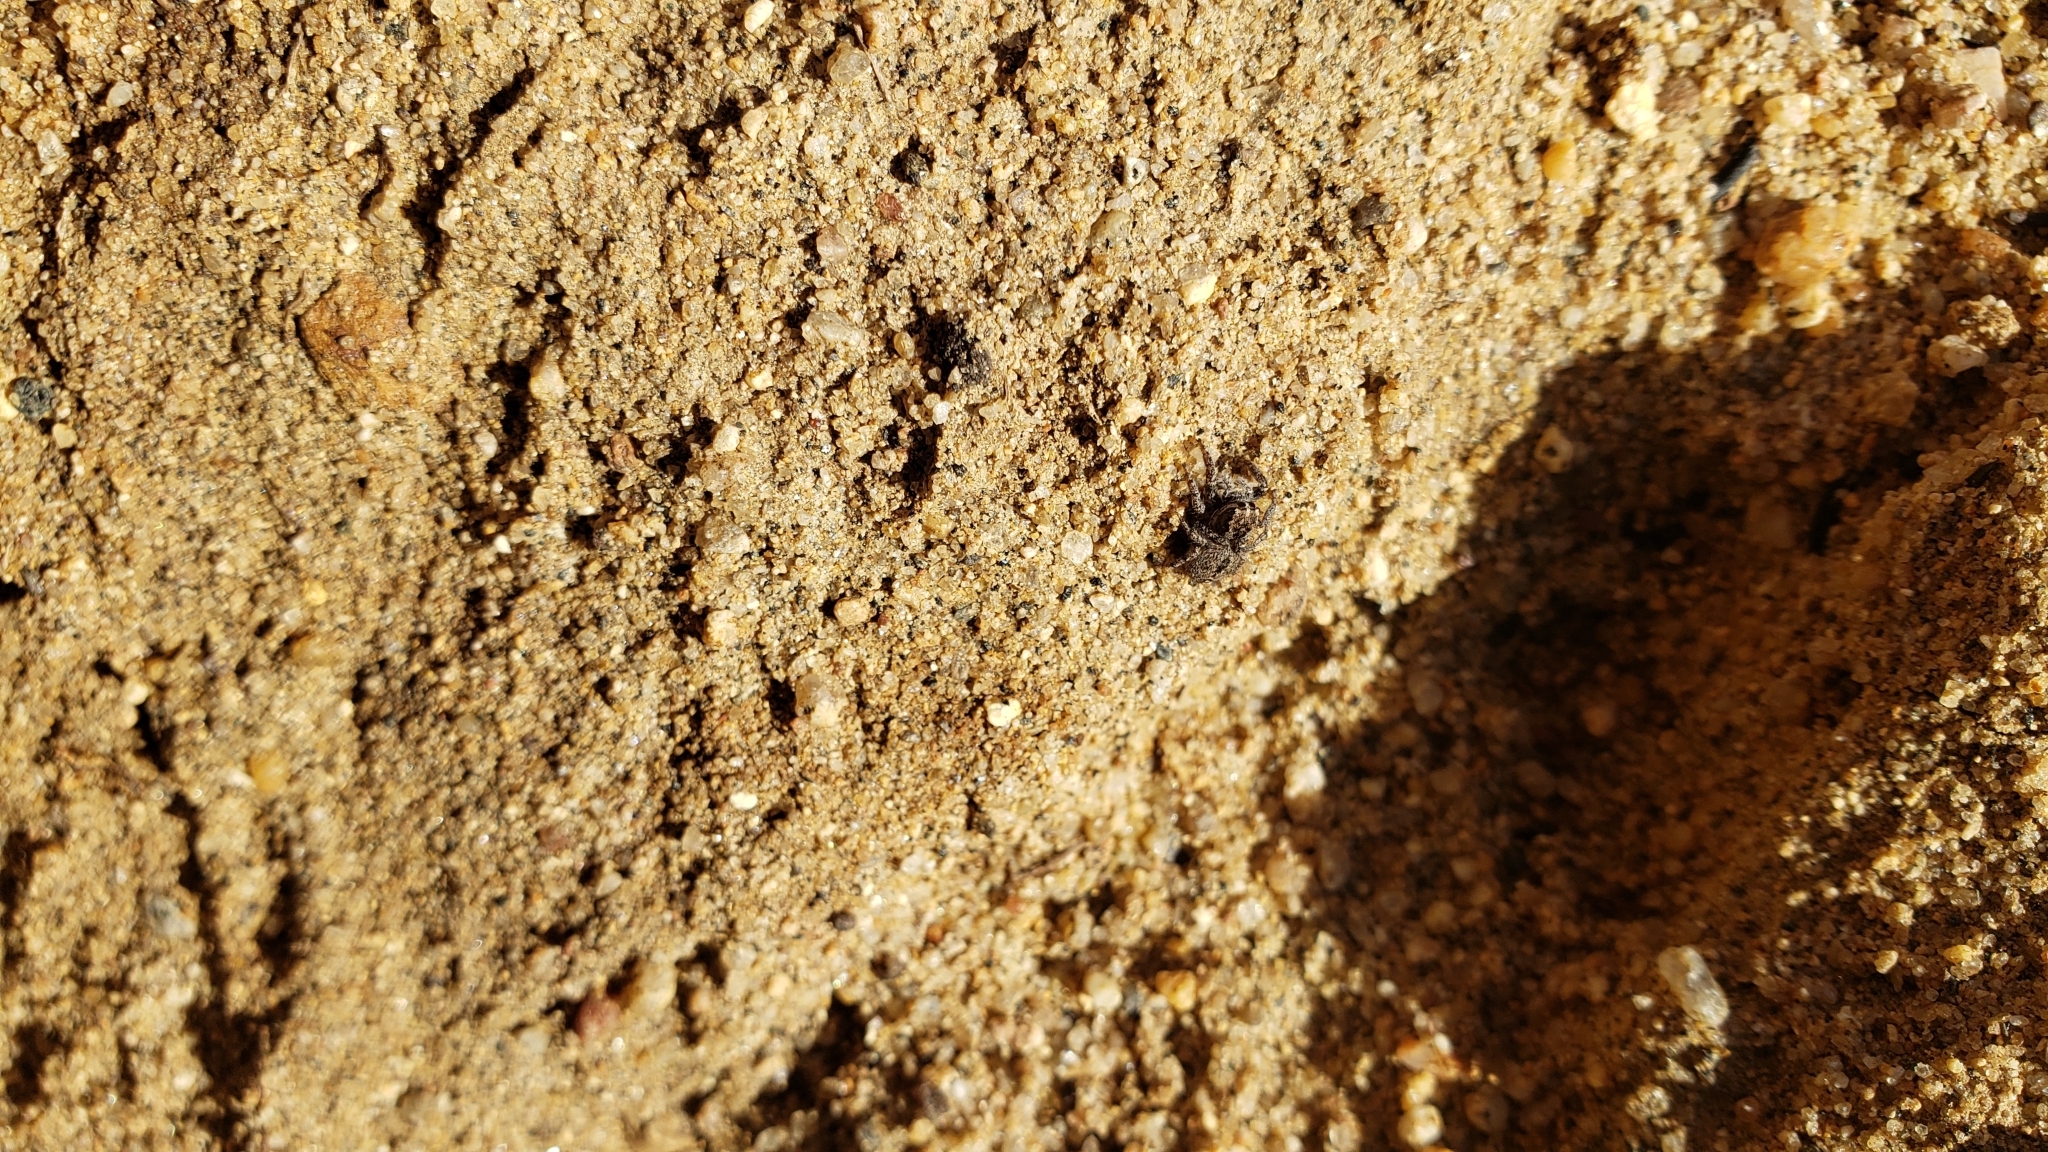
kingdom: Animalia
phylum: Arthropoda
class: Arachnida
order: Araneae
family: Salticidae
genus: Habronattus
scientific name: Habronattus elegans
